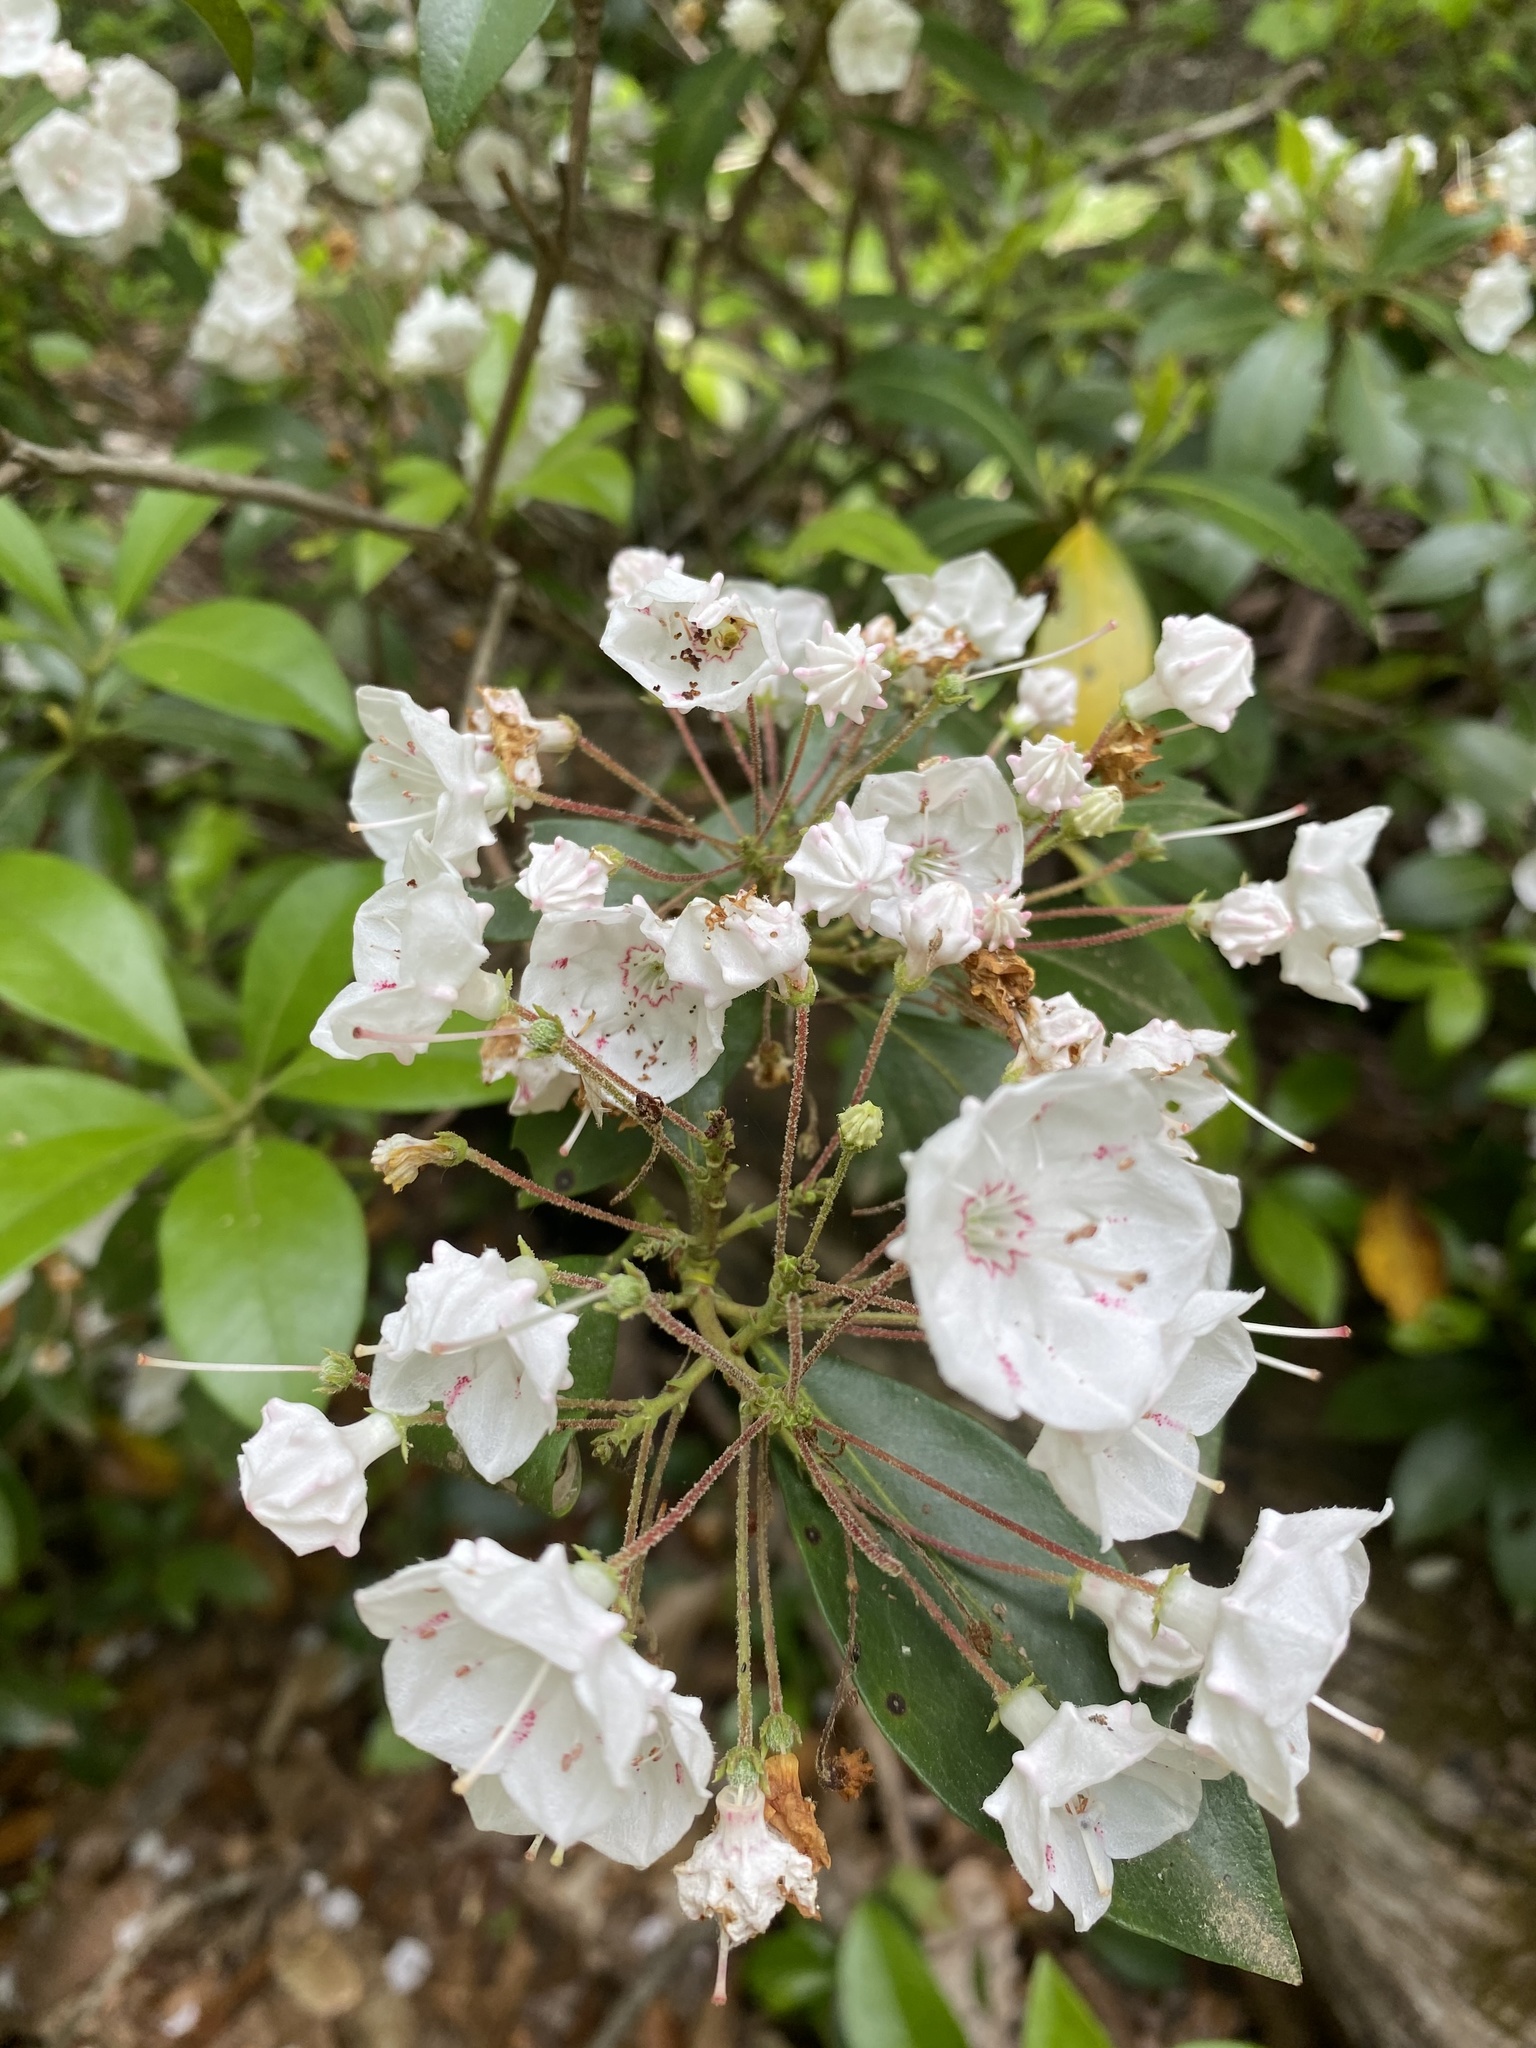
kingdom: Plantae
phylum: Tracheophyta
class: Magnoliopsida
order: Ericales
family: Ericaceae
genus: Kalmia
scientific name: Kalmia latifolia
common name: Mountain-laurel
